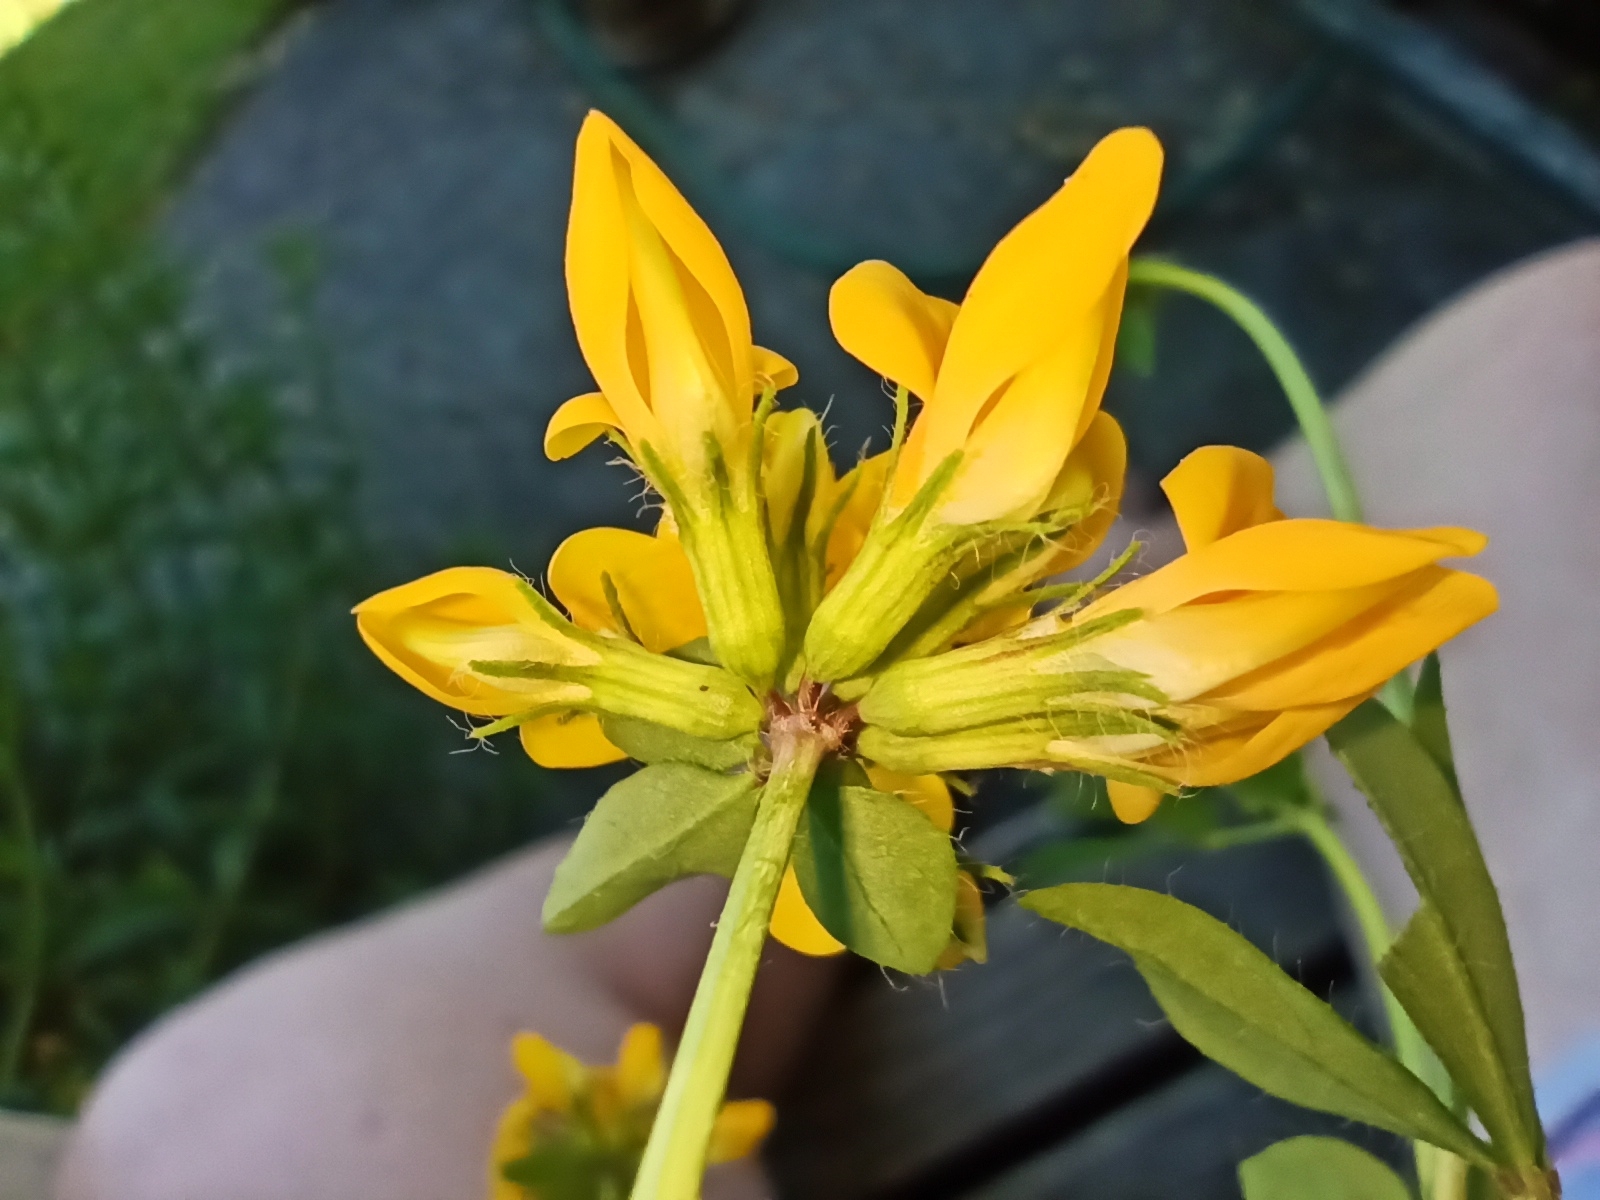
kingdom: Plantae
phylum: Tracheophyta
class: Magnoliopsida
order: Fabales
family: Fabaceae
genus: Lotus
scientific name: Lotus pedunculatus
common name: Greater birdsfoot-trefoil
